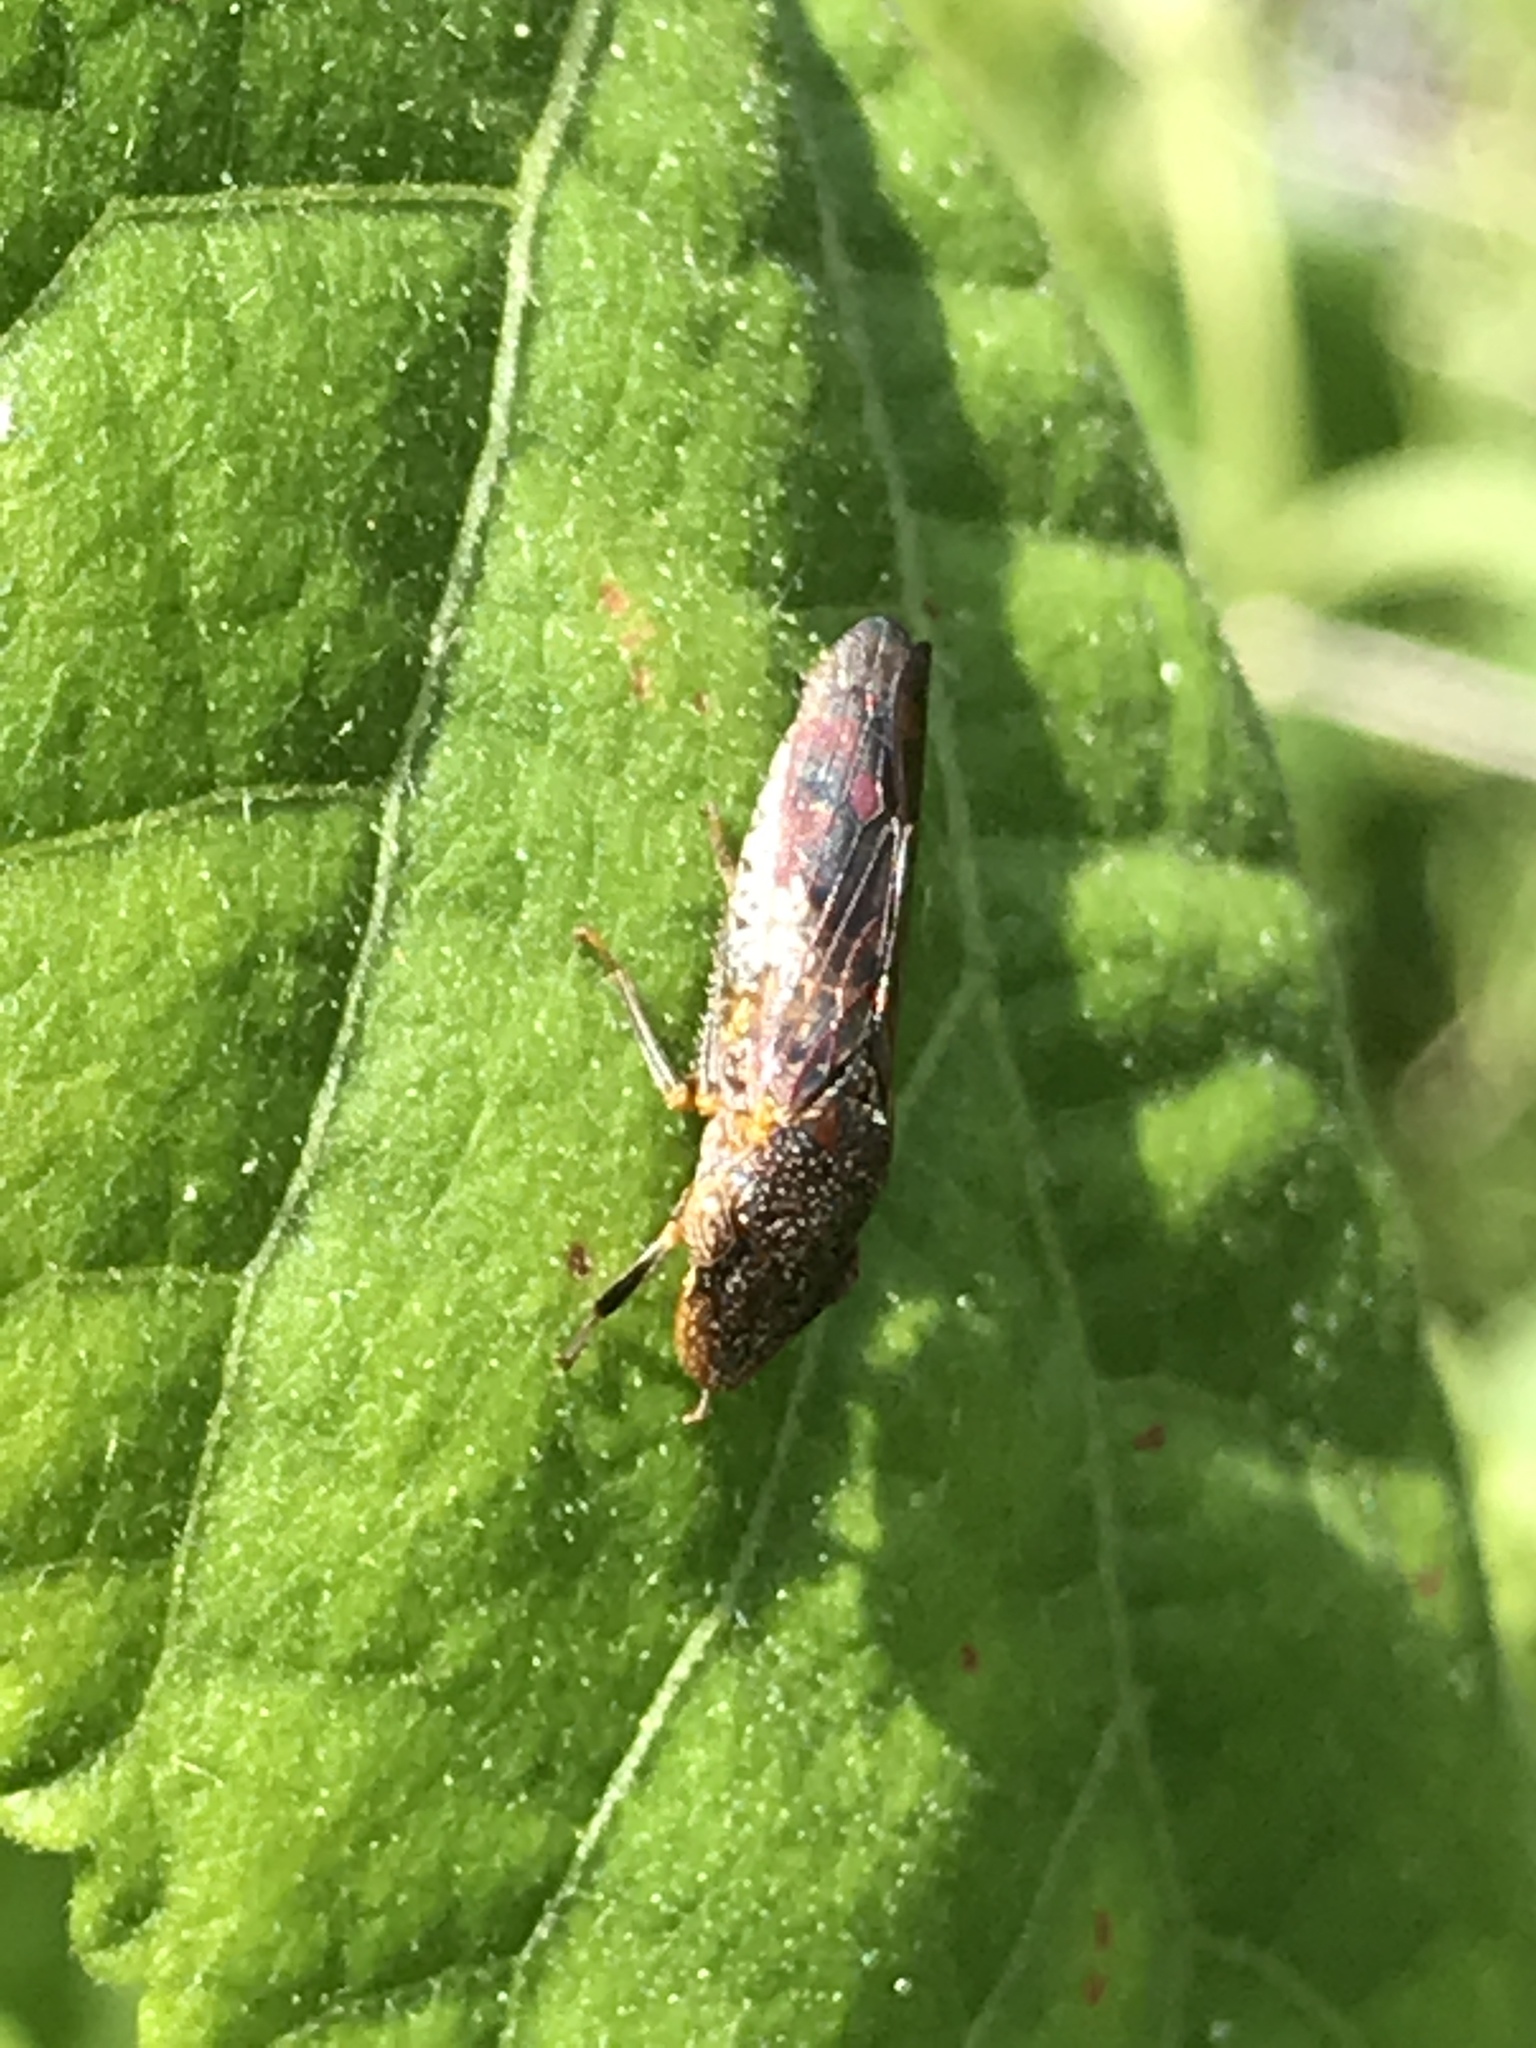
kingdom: Animalia
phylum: Arthropoda
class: Insecta
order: Hemiptera
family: Cicadellidae
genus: Homalodisca
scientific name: Homalodisca vitripennis
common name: Glassy-winged sharpshooter
